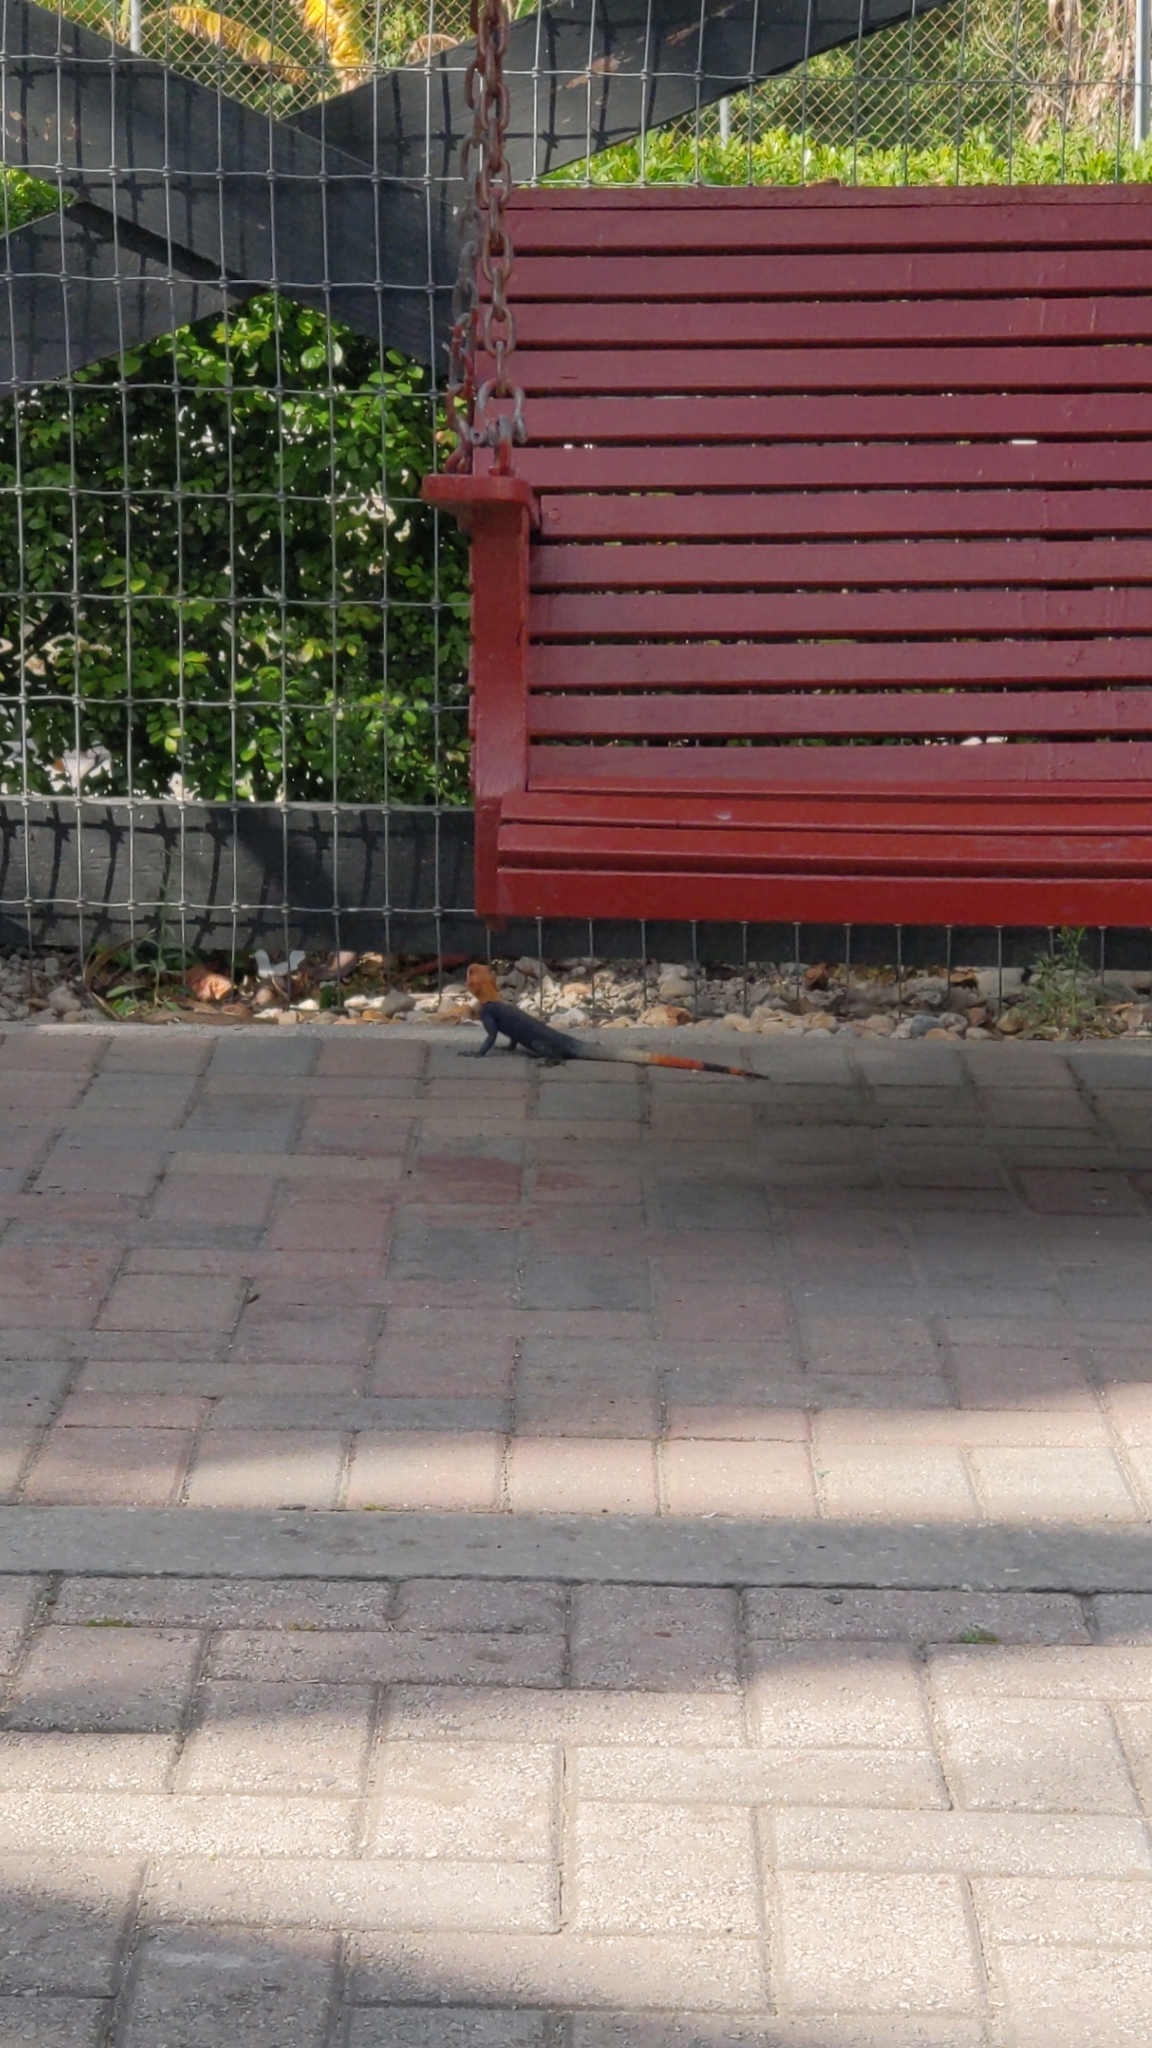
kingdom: Animalia
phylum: Chordata
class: Squamata
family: Agamidae
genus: Agama
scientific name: Agama picticauda
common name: Red-headed agama
